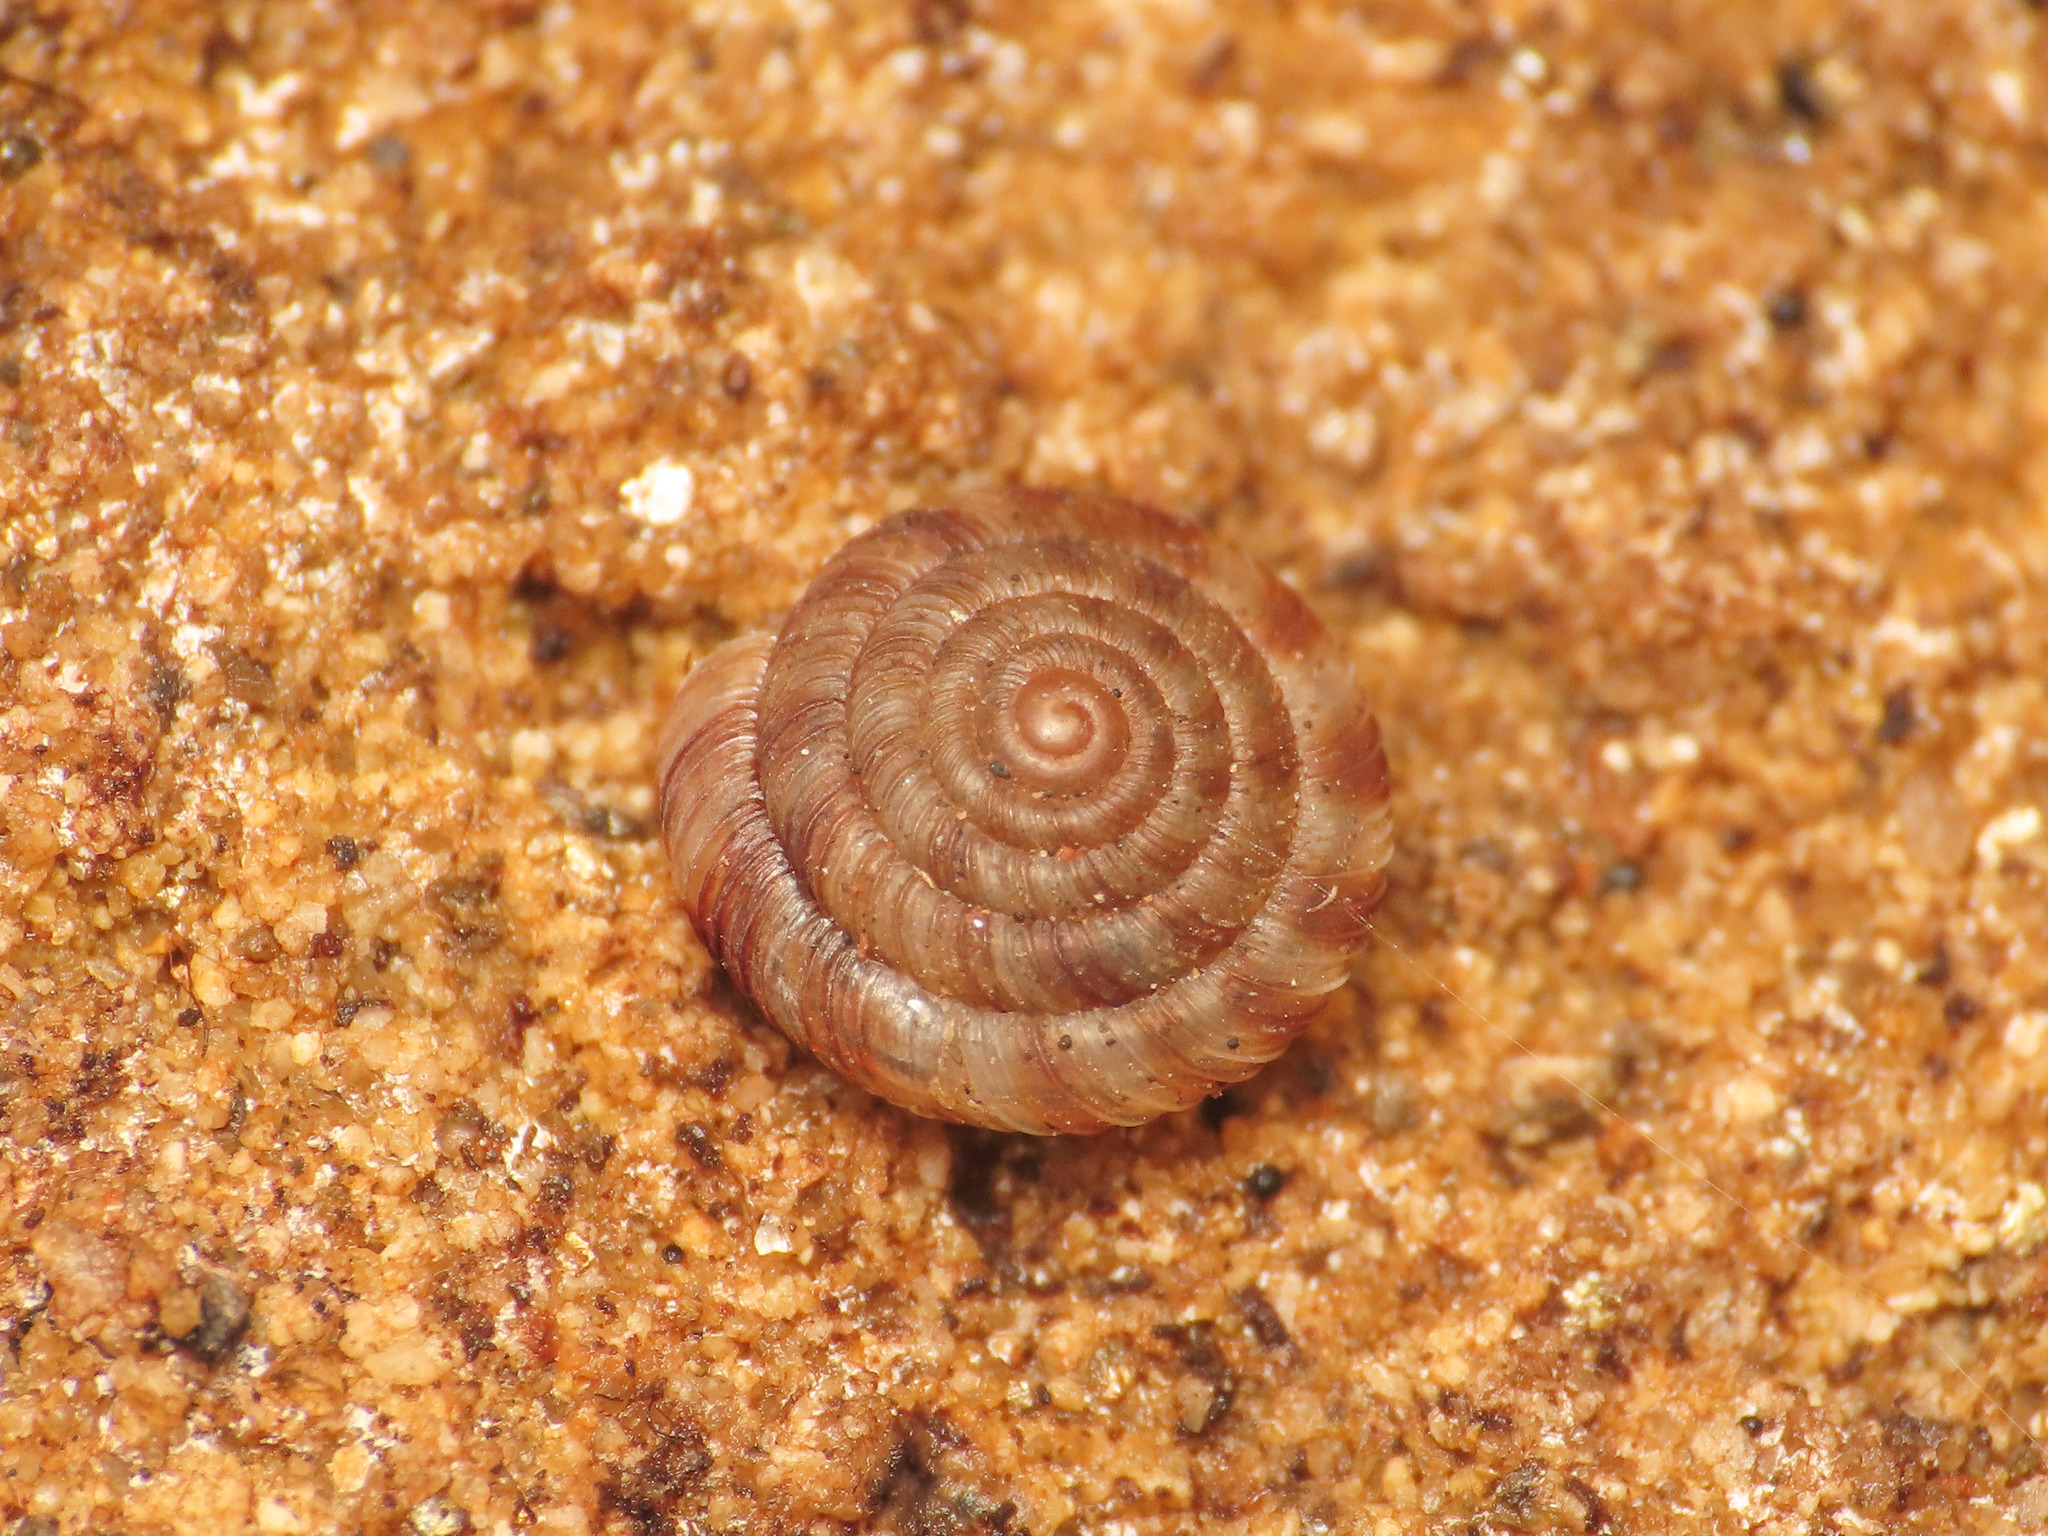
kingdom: Animalia
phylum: Mollusca
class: Gastropoda
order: Stylommatophora
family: Discidae
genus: Discus
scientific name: Discus rotundatus
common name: Rounded snail
